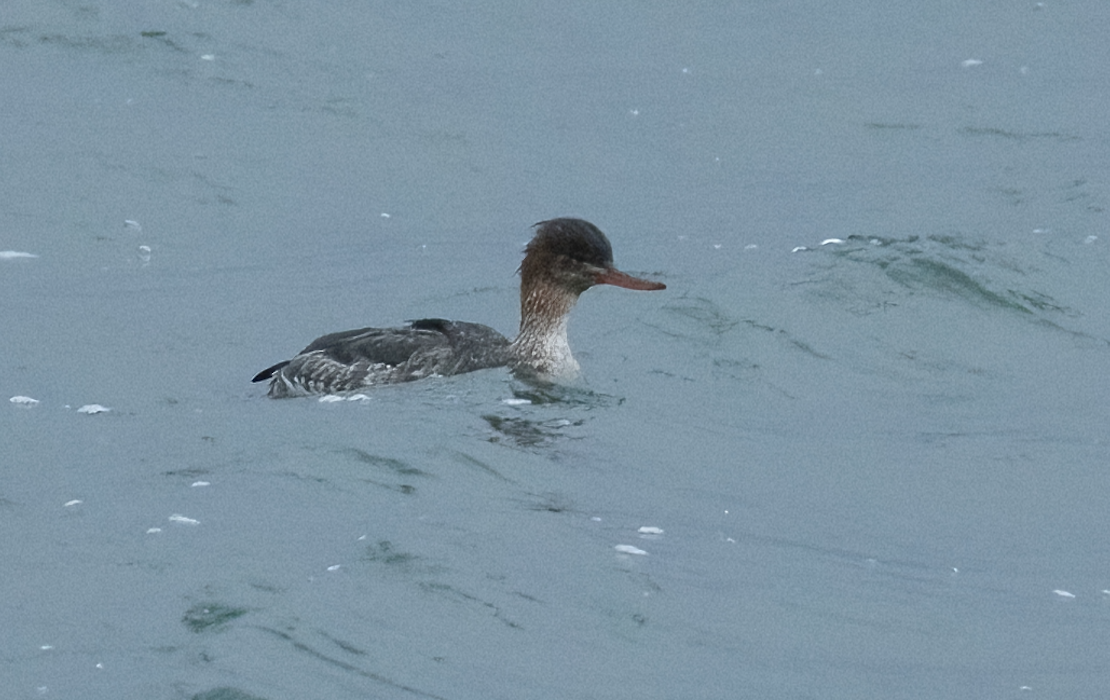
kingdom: Animalia
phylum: Chordata
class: Aves
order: Anseriformes
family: Anatidae
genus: Mergus
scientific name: Mergus serrator
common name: Red-breasted merganser
